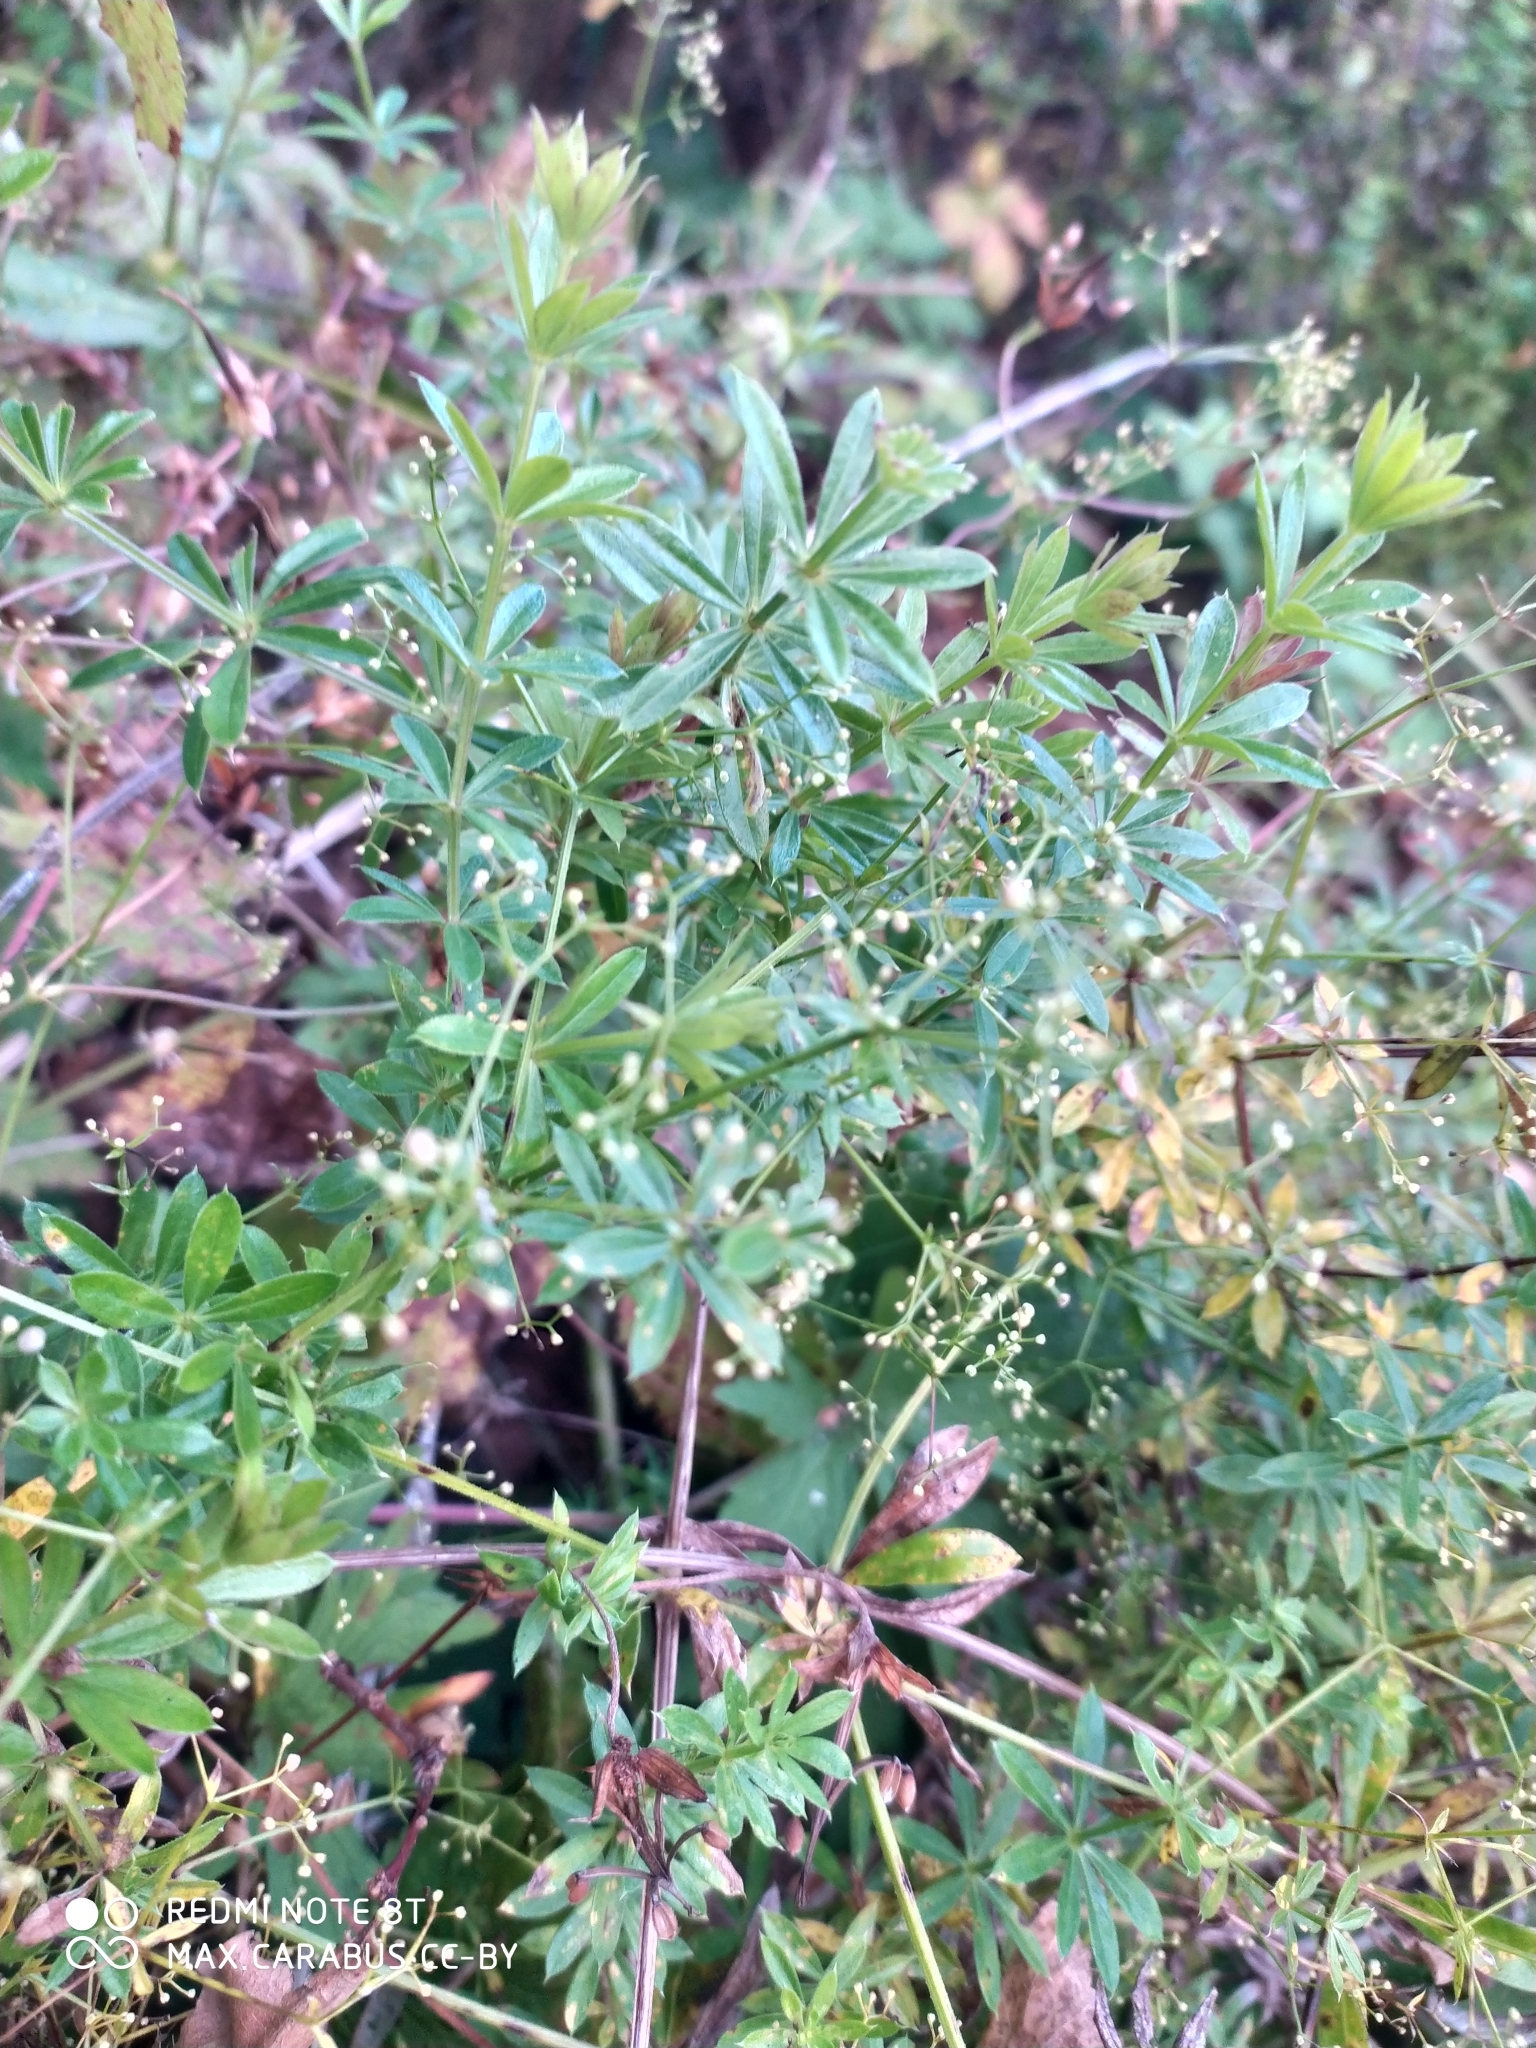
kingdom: Plantae
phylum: Tracheophyta
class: Magnoliopsida
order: Gentianales
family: Rubiaceae
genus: Galium
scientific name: Galium rivale
